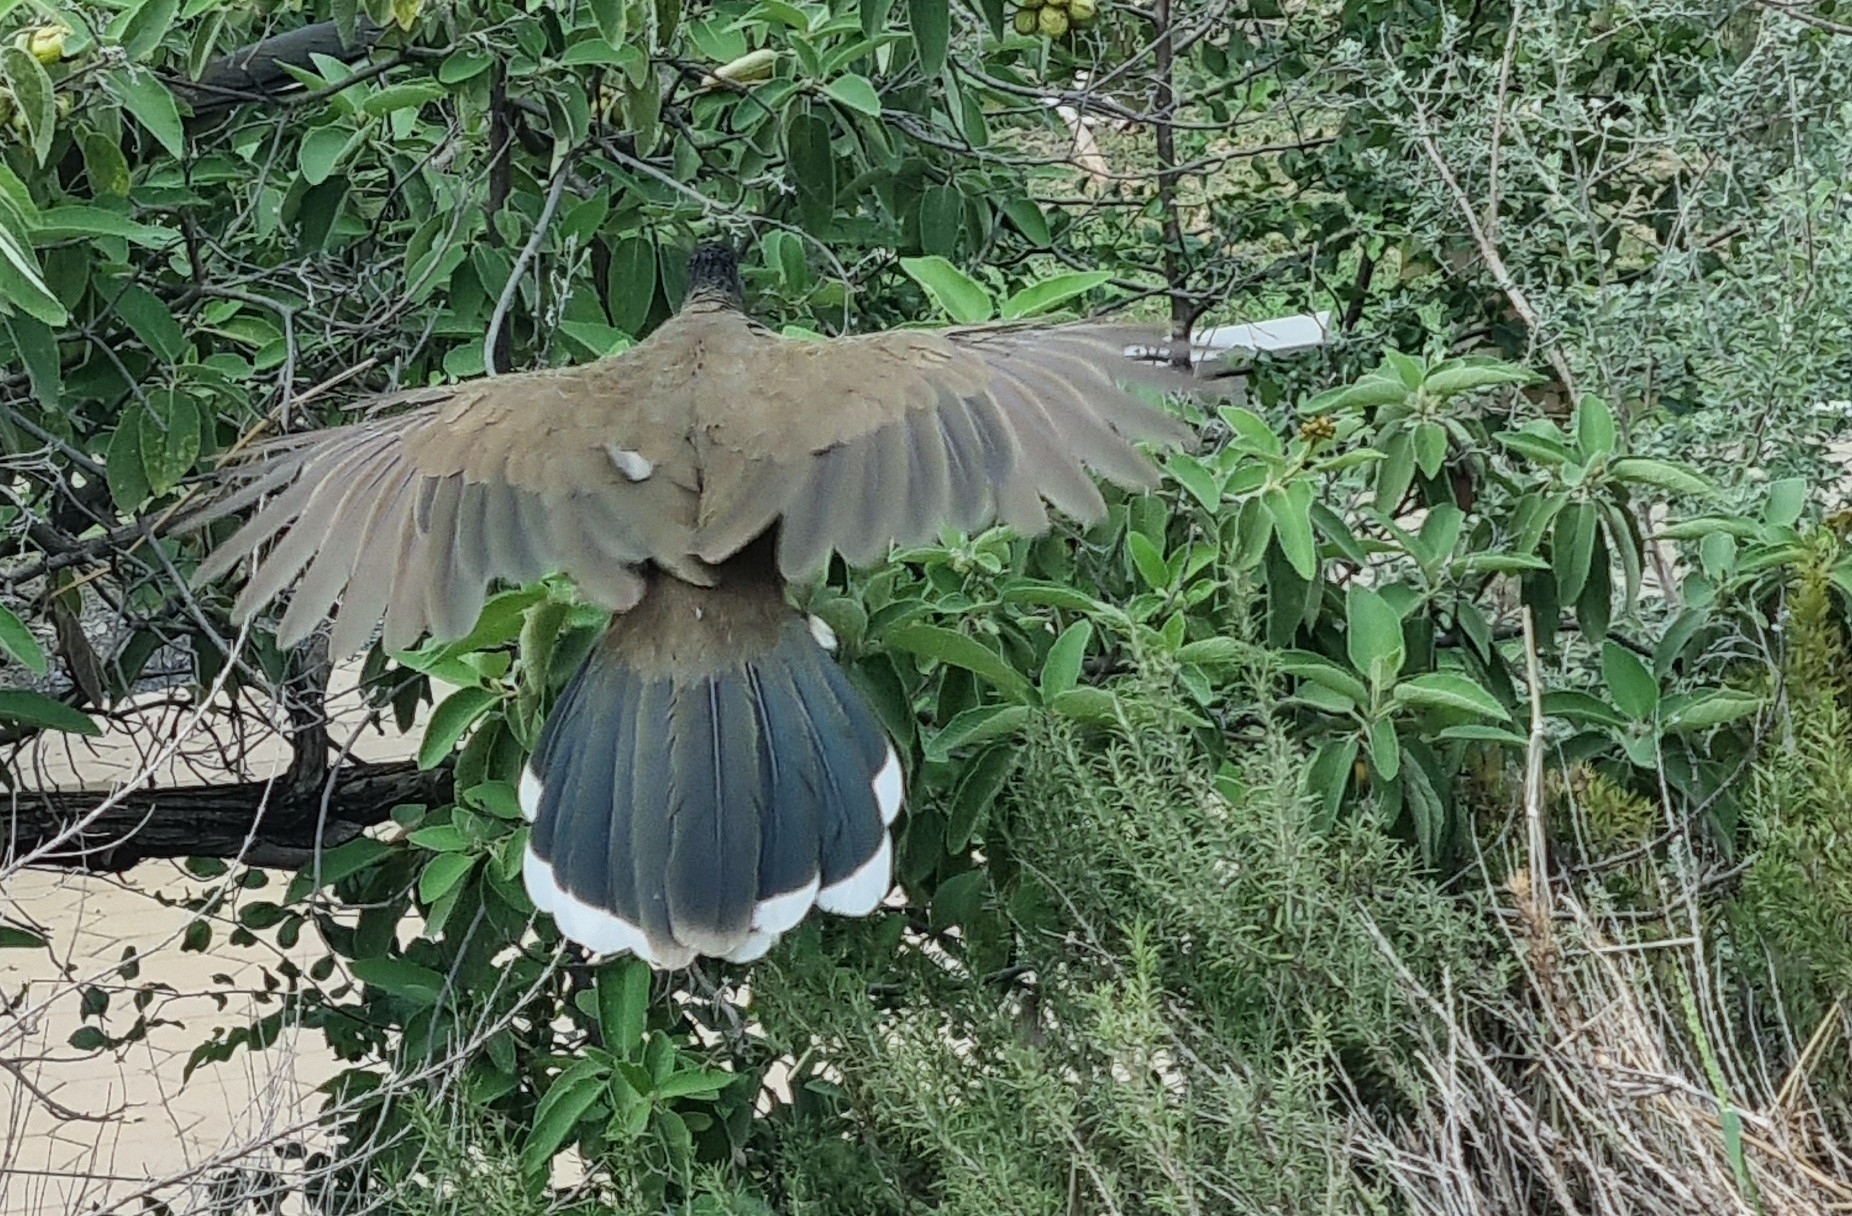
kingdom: Animalia
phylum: Chordata
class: Aves
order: Galliformes
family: Cracidae
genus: Ortalis
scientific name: Ortalis vetula
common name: Plain chachalaca
